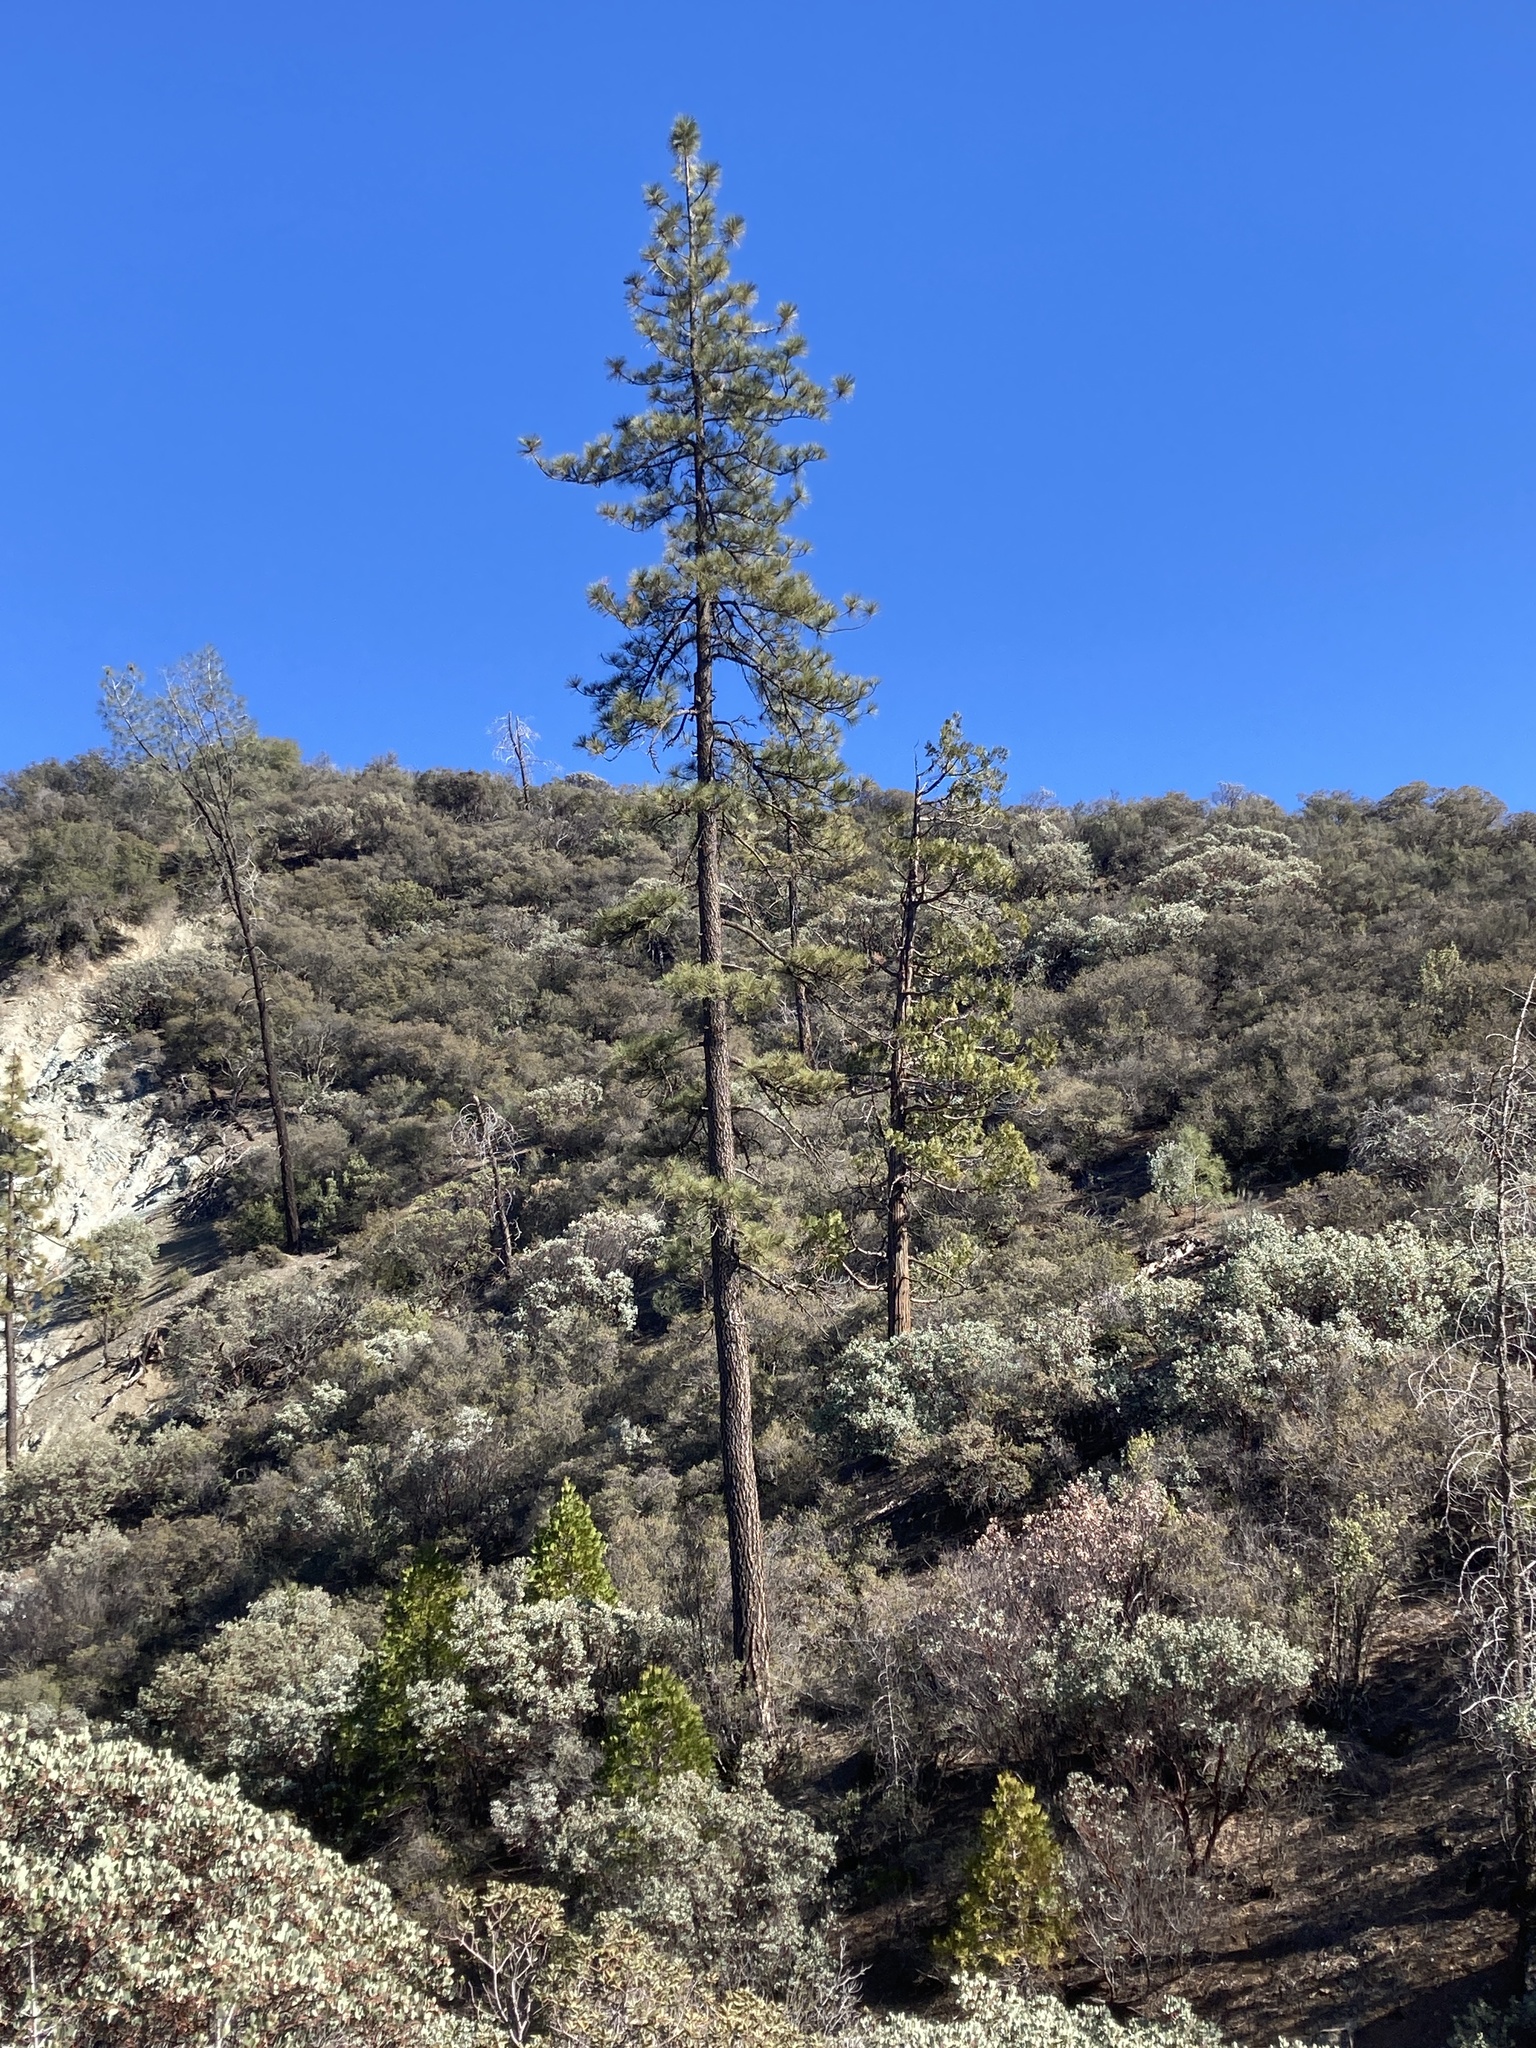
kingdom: Plantae
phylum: Tracheophyta
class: Pinopsida
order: Pinales
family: Pinaceae
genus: Pinus
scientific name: Pinus jeffreyi
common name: Jeffrey pine
